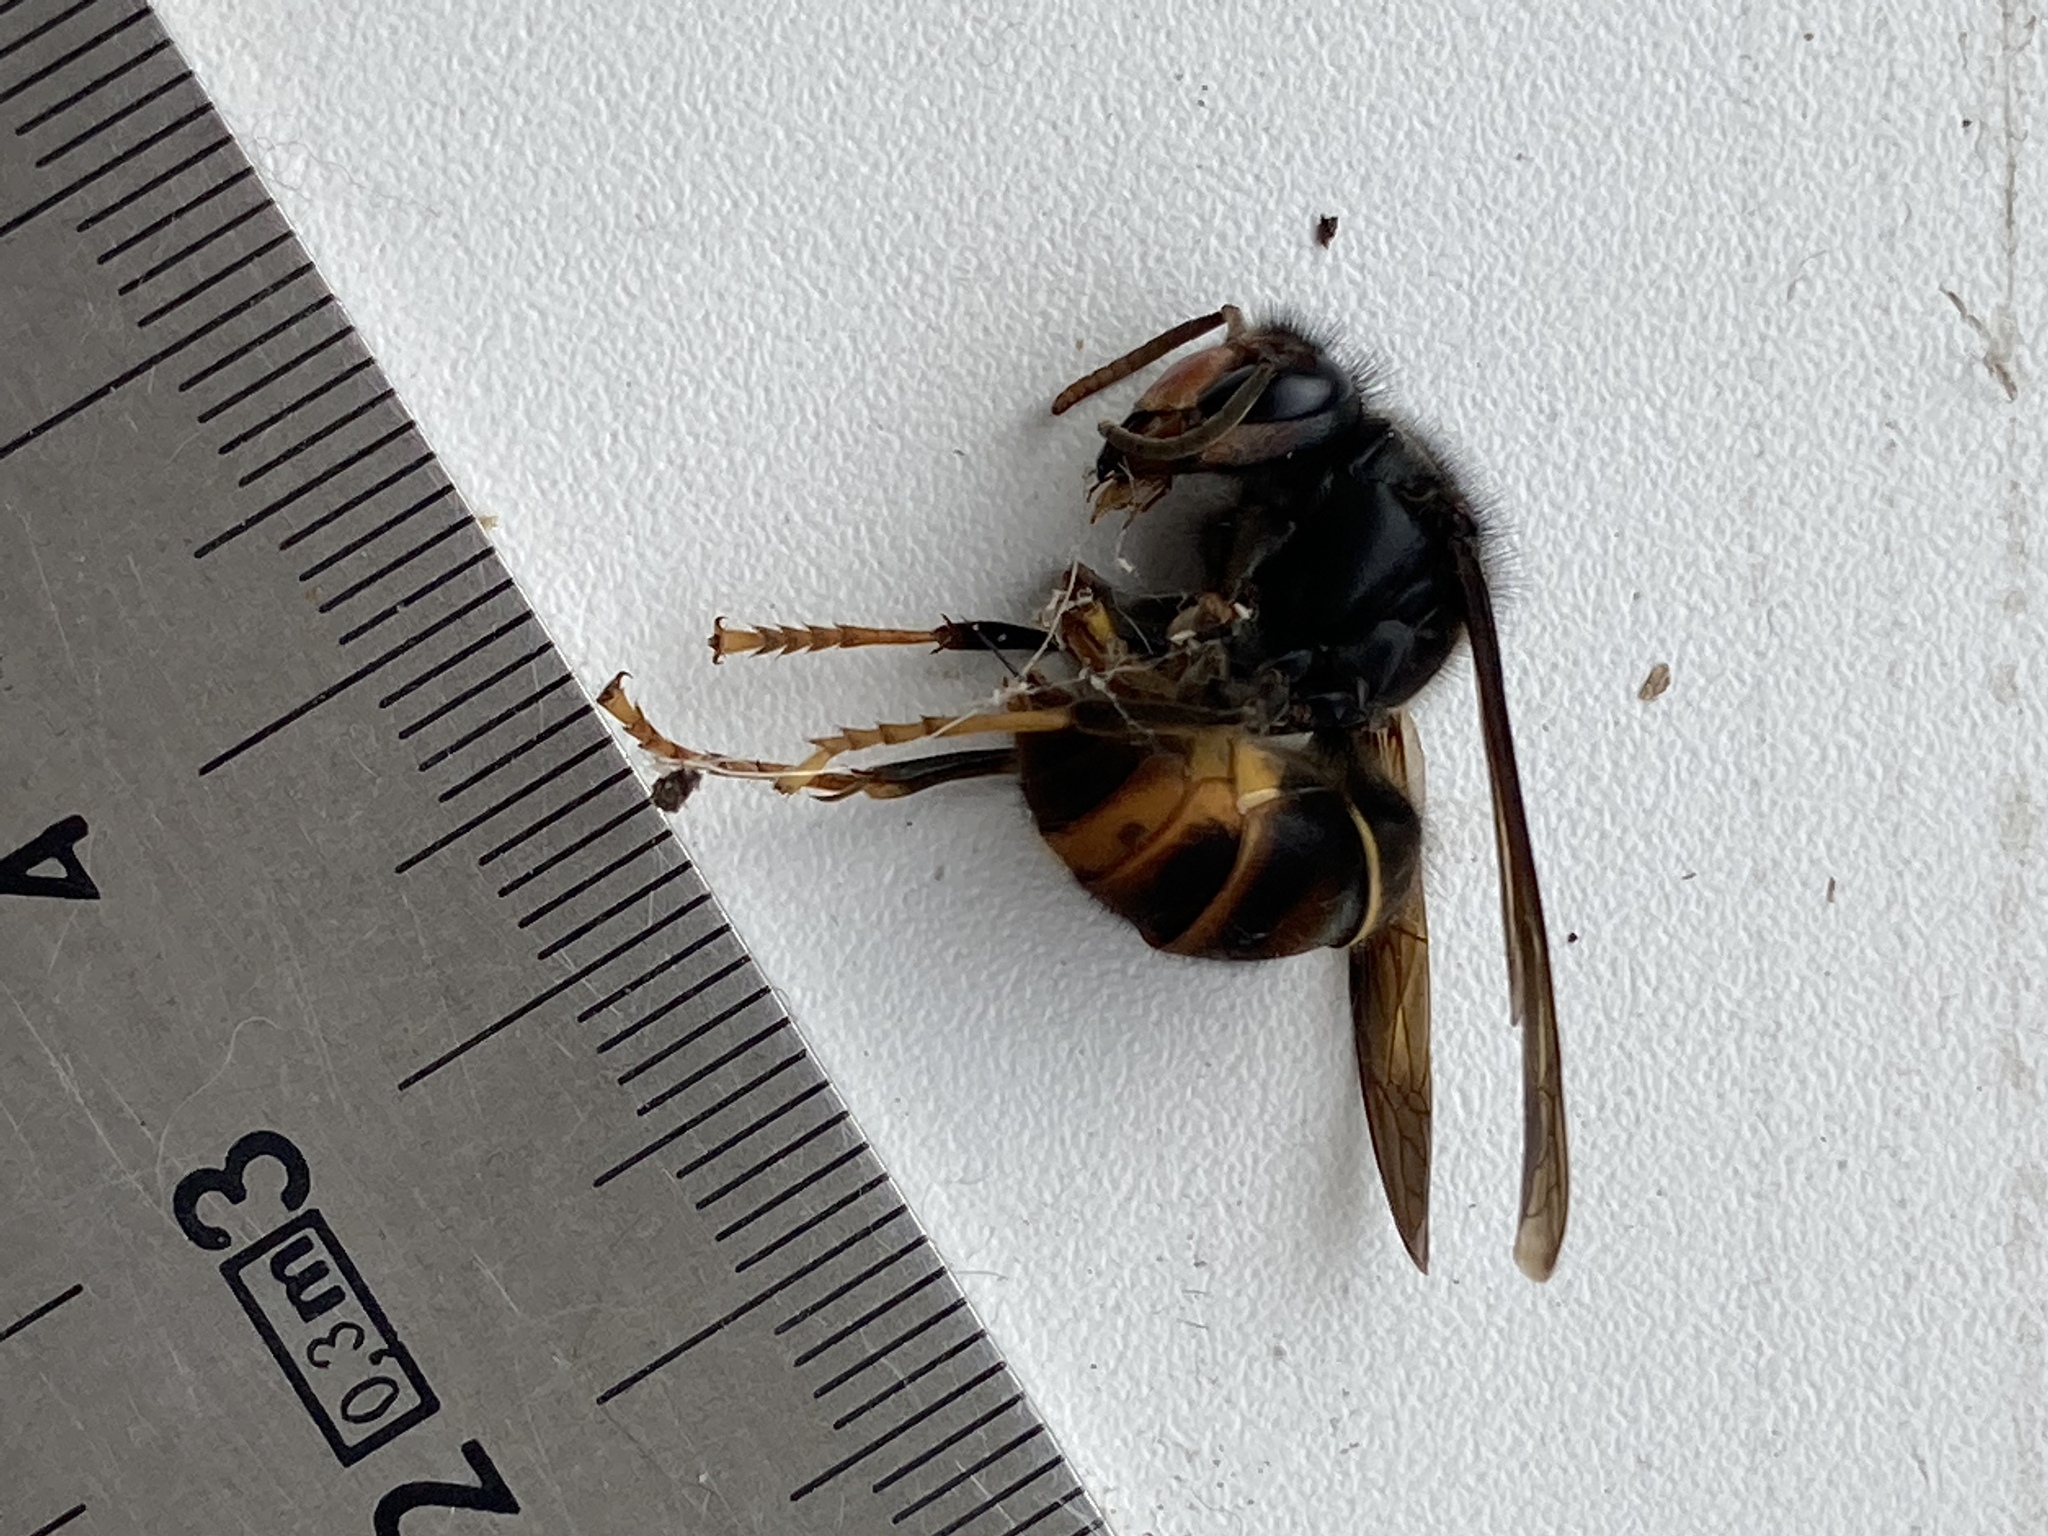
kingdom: Animalia
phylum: Arthropoda
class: Insecta
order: Hymenoptera
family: Vespidae
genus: Vespa
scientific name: Vespa velutina
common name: Asian hornet
